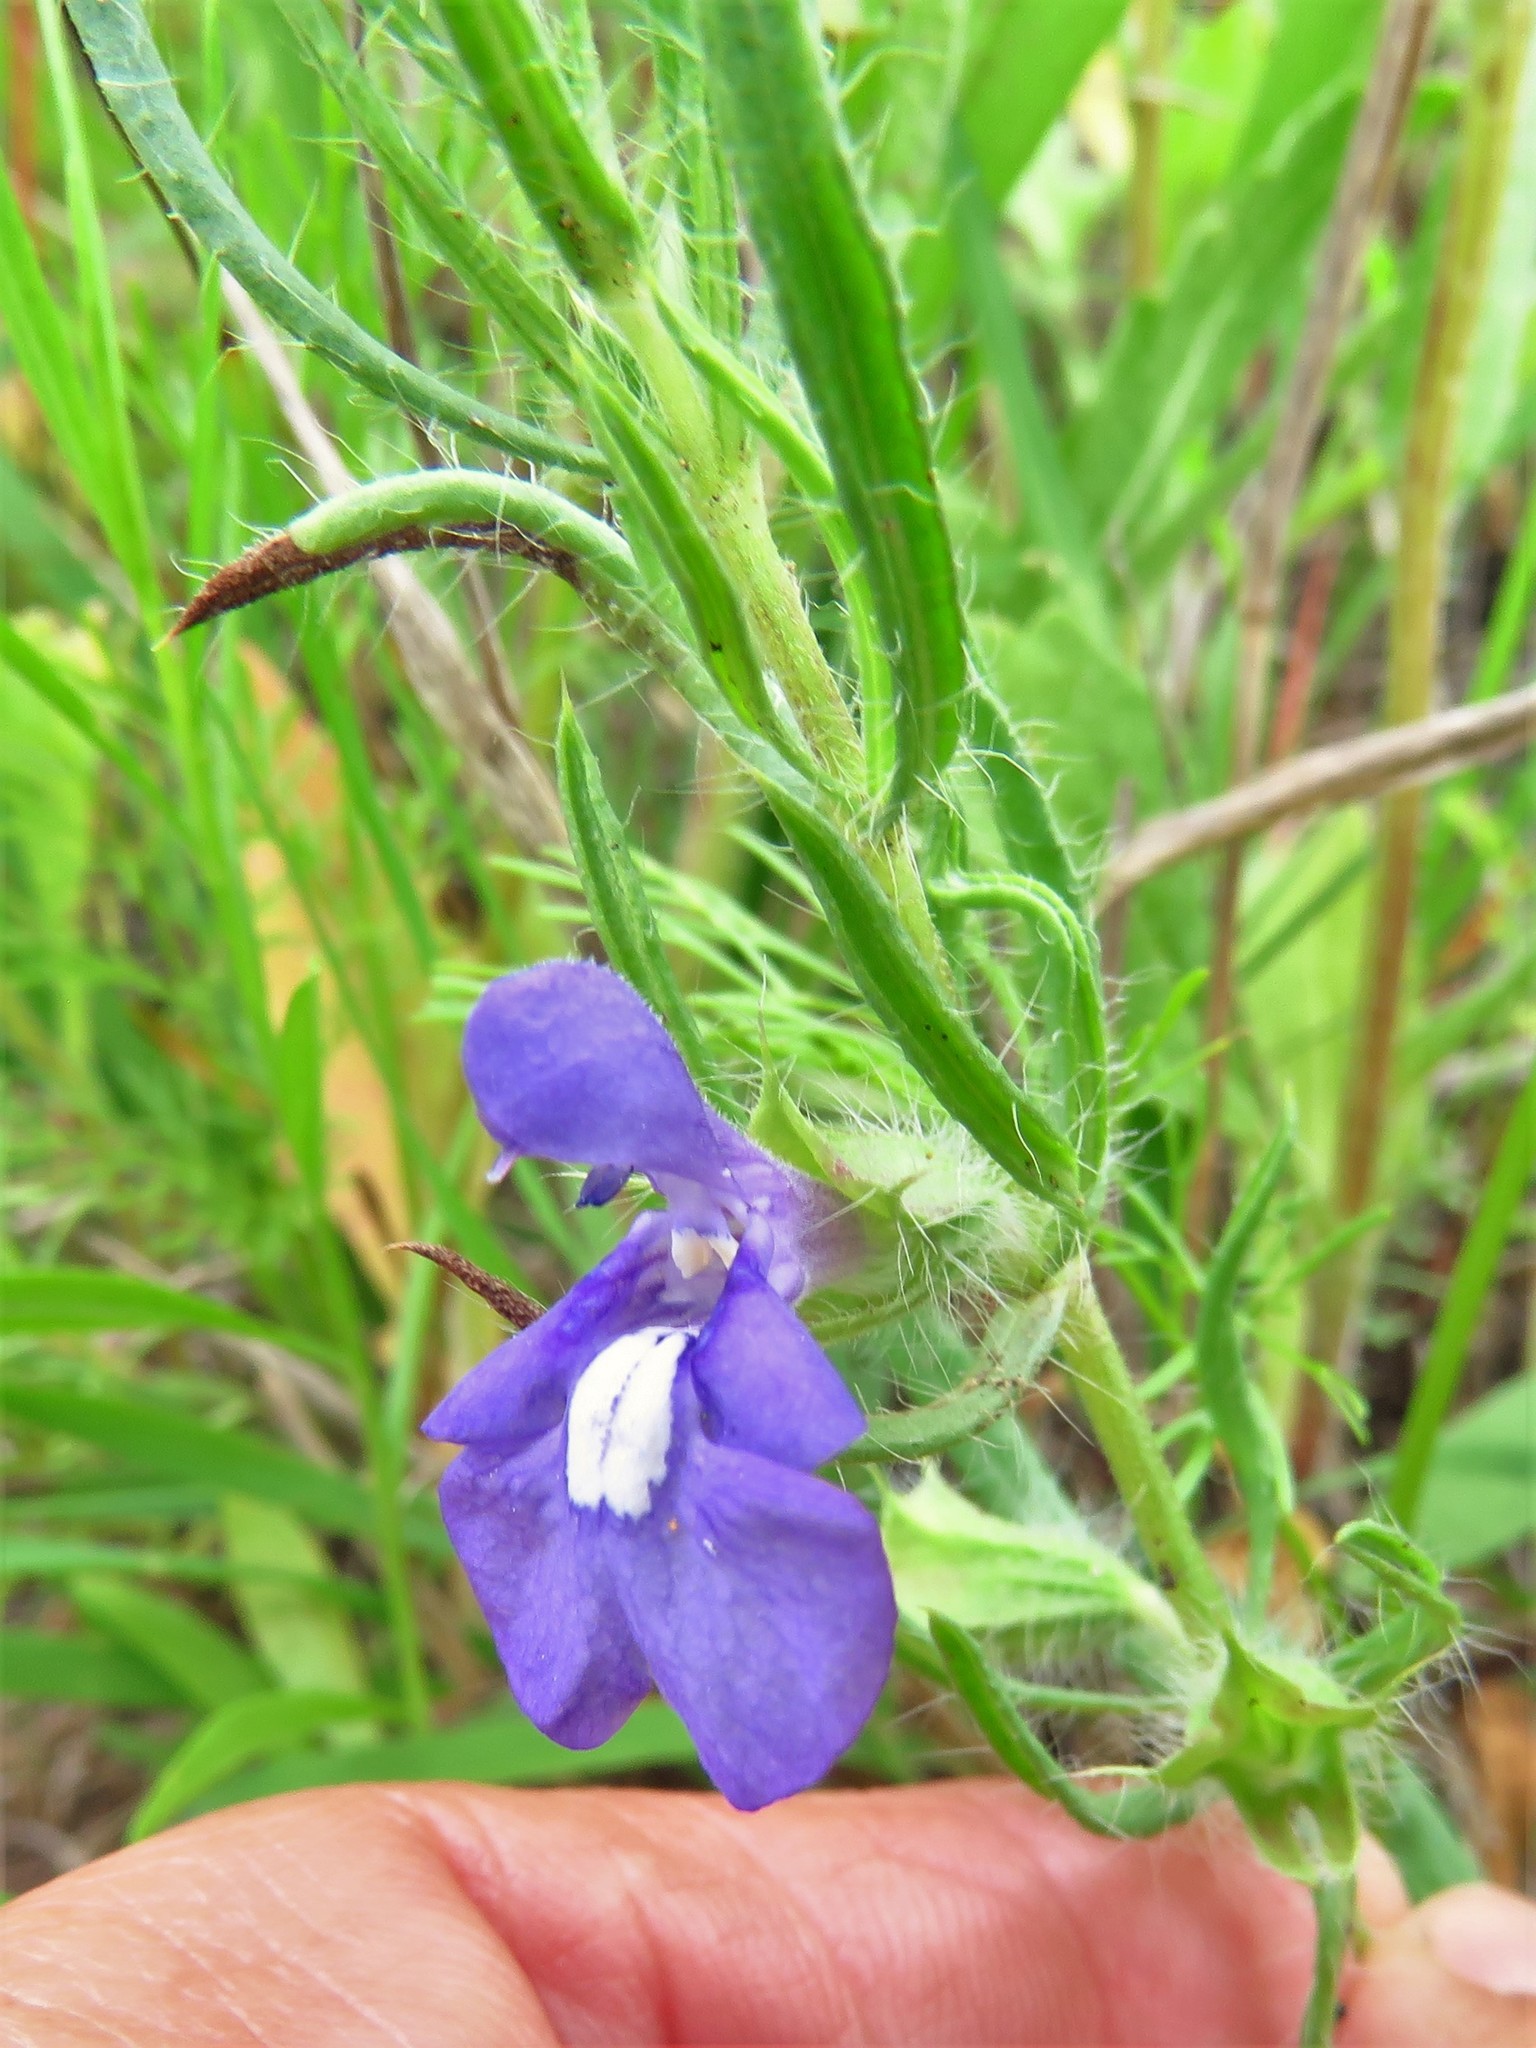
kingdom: Plantae
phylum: Tracheophyta
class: Magnoliopsida
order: Lamiales
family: Lamiaceae
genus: Salvia
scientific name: Salvia texana
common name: Texas sage
